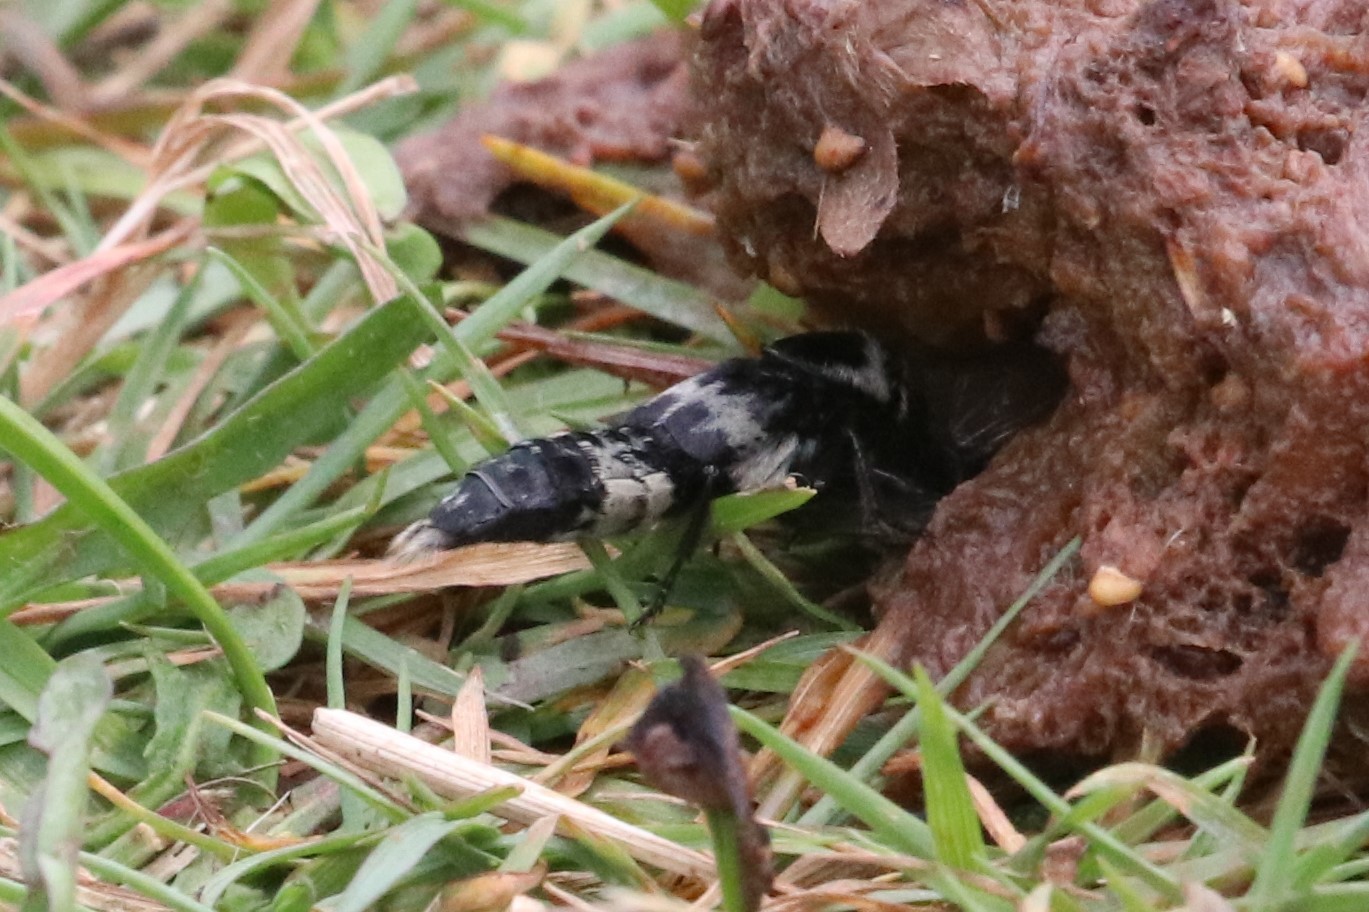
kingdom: Animalia
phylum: Arthropoda
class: Insecta
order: Coleoptera
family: Staphylinidae
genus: Creophilus
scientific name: Creophilus maxillosus
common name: Hairy rove beetle
